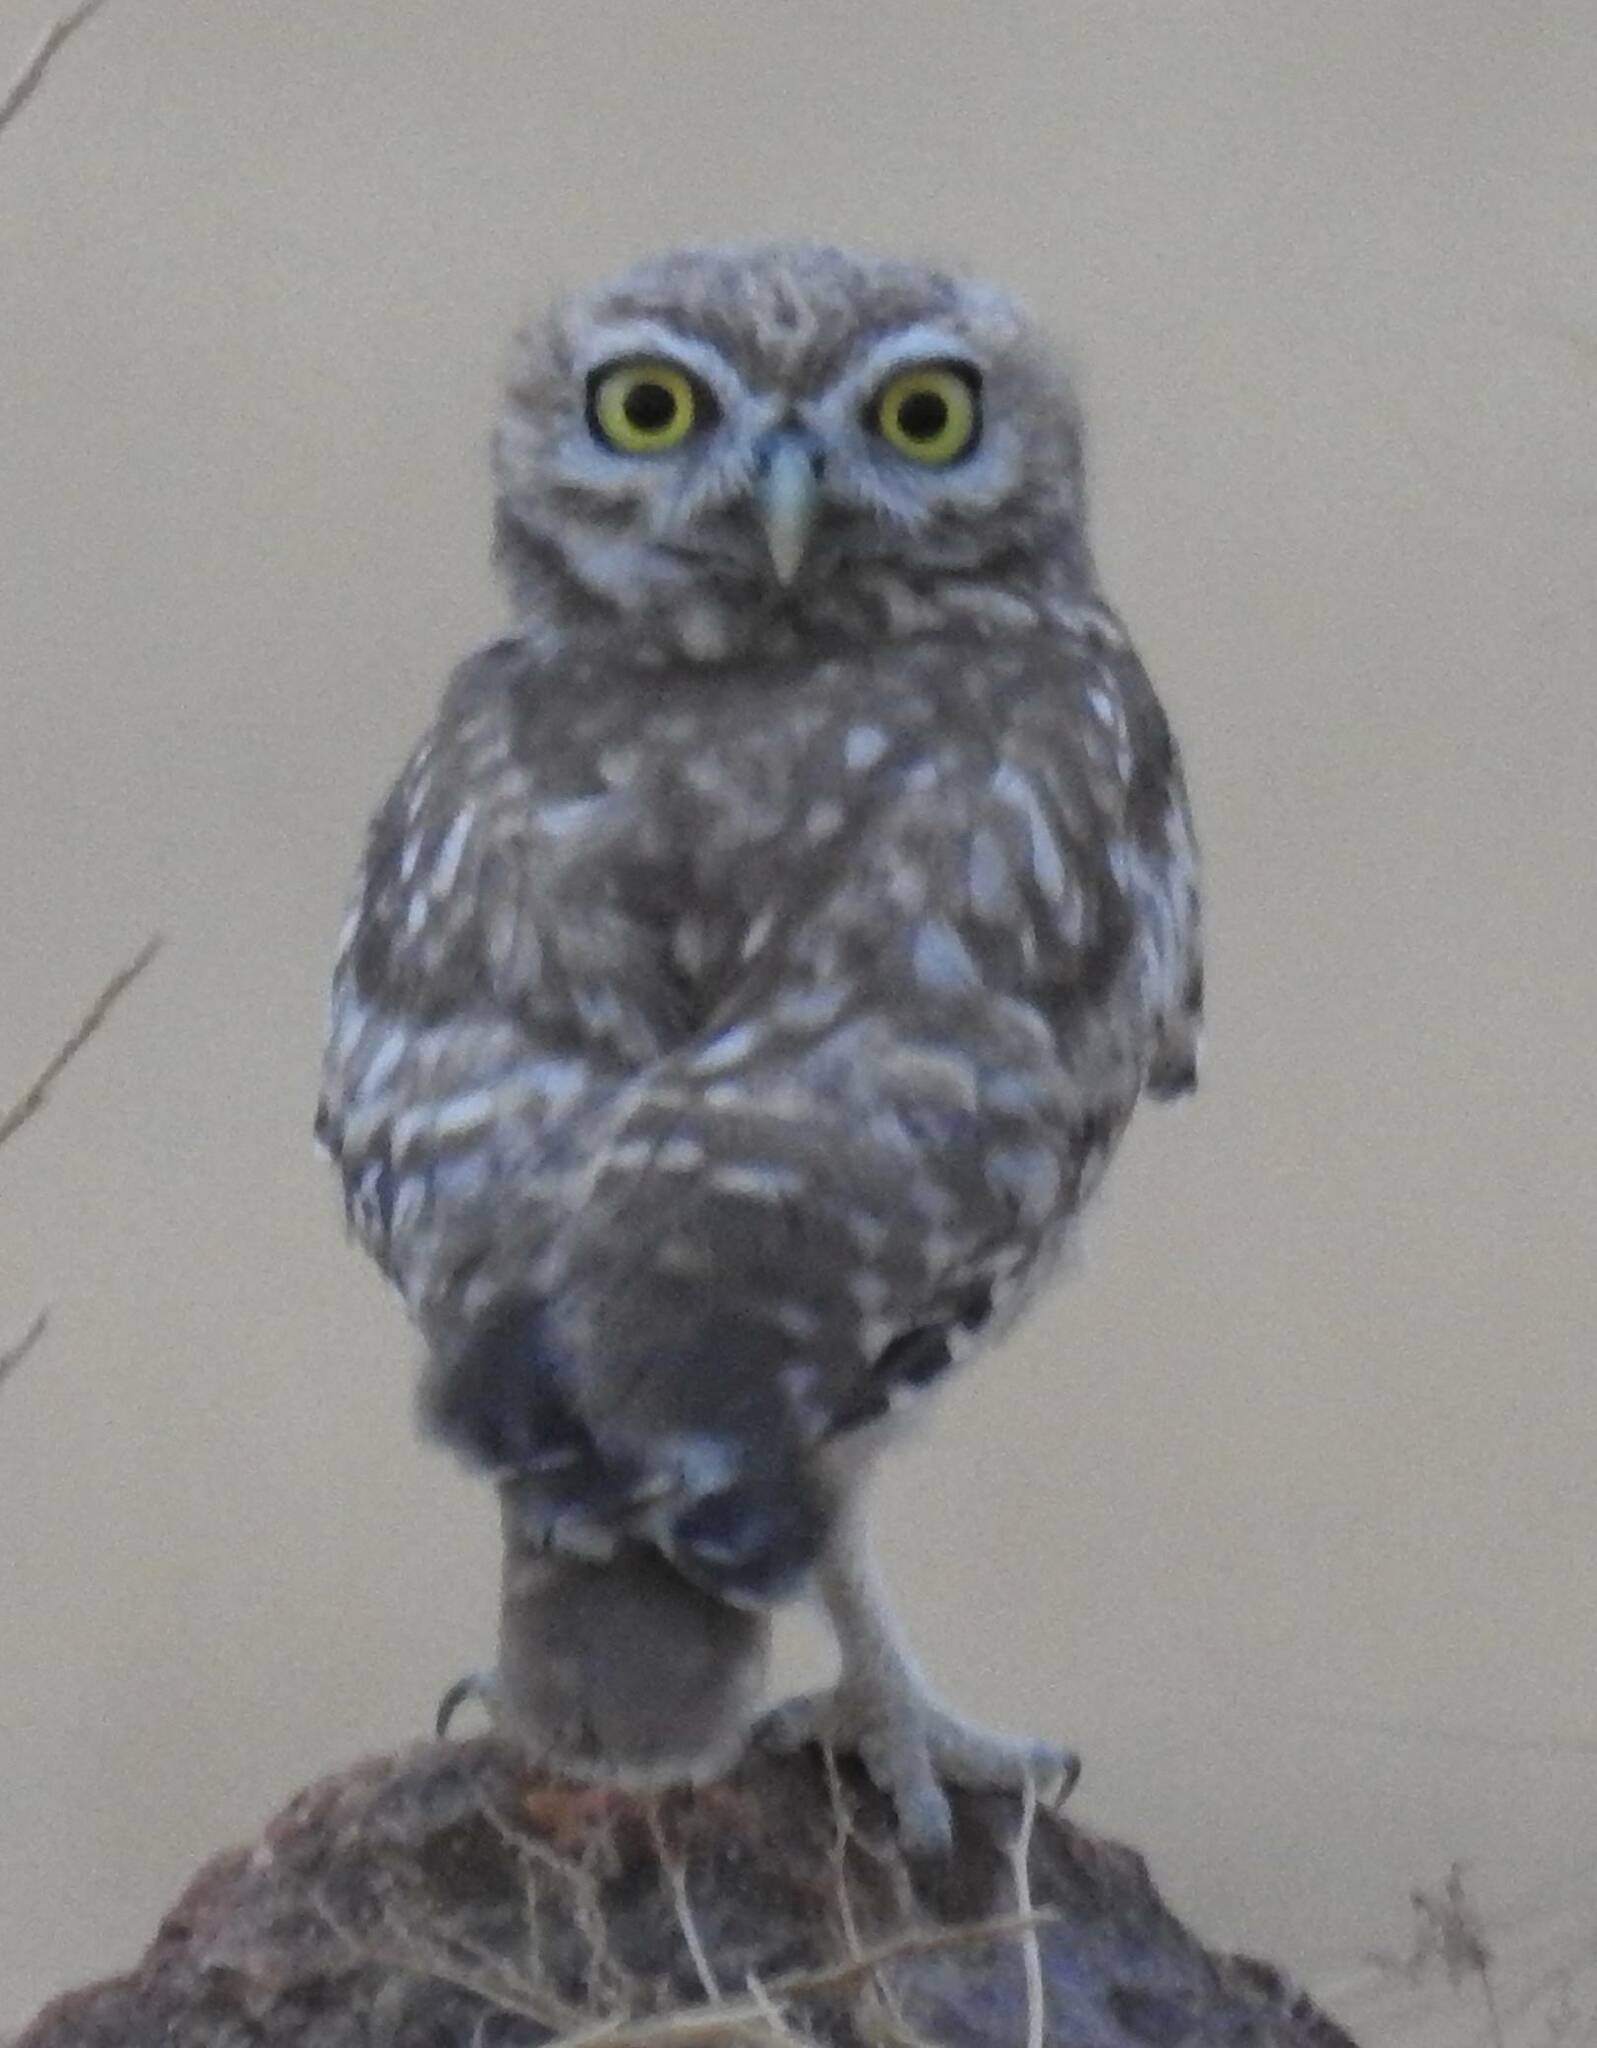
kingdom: Animalia
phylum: Chordata
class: Aves
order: Strigiformes
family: Strigidae
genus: Athene
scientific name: Athene noctua
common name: Little owl
